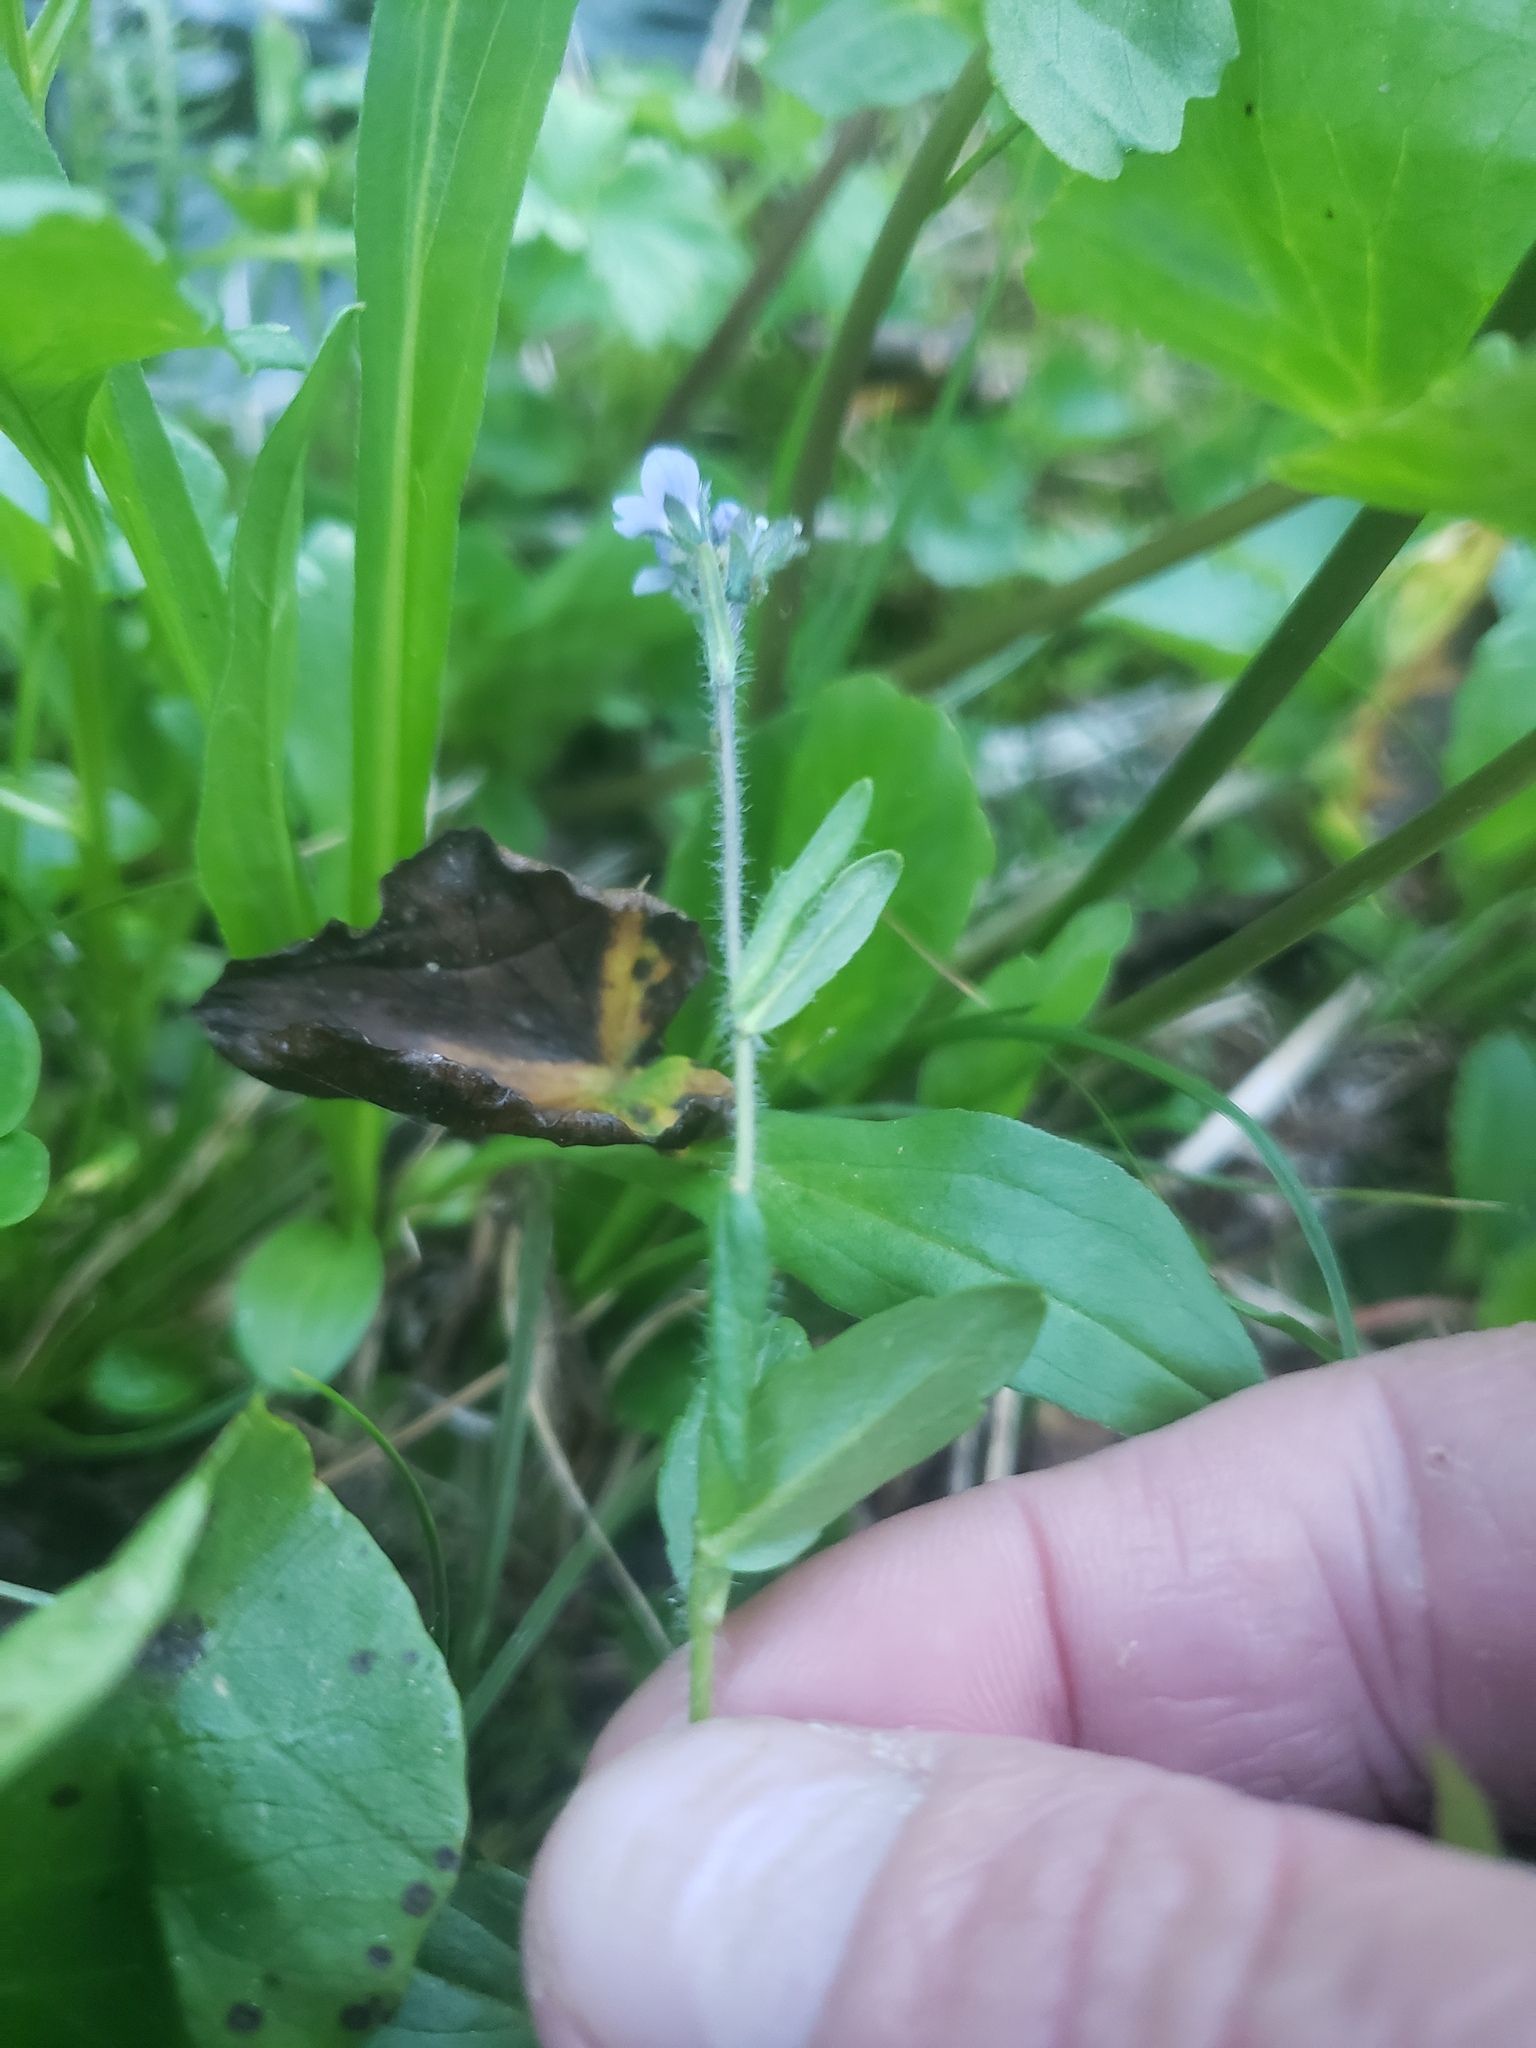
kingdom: Plantae
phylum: Tracheophyta
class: Magnoliopsida
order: Lamiales
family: Plantaginaceae
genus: Veronica
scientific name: Veronica wormskjoldii
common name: American alpine speedwell
